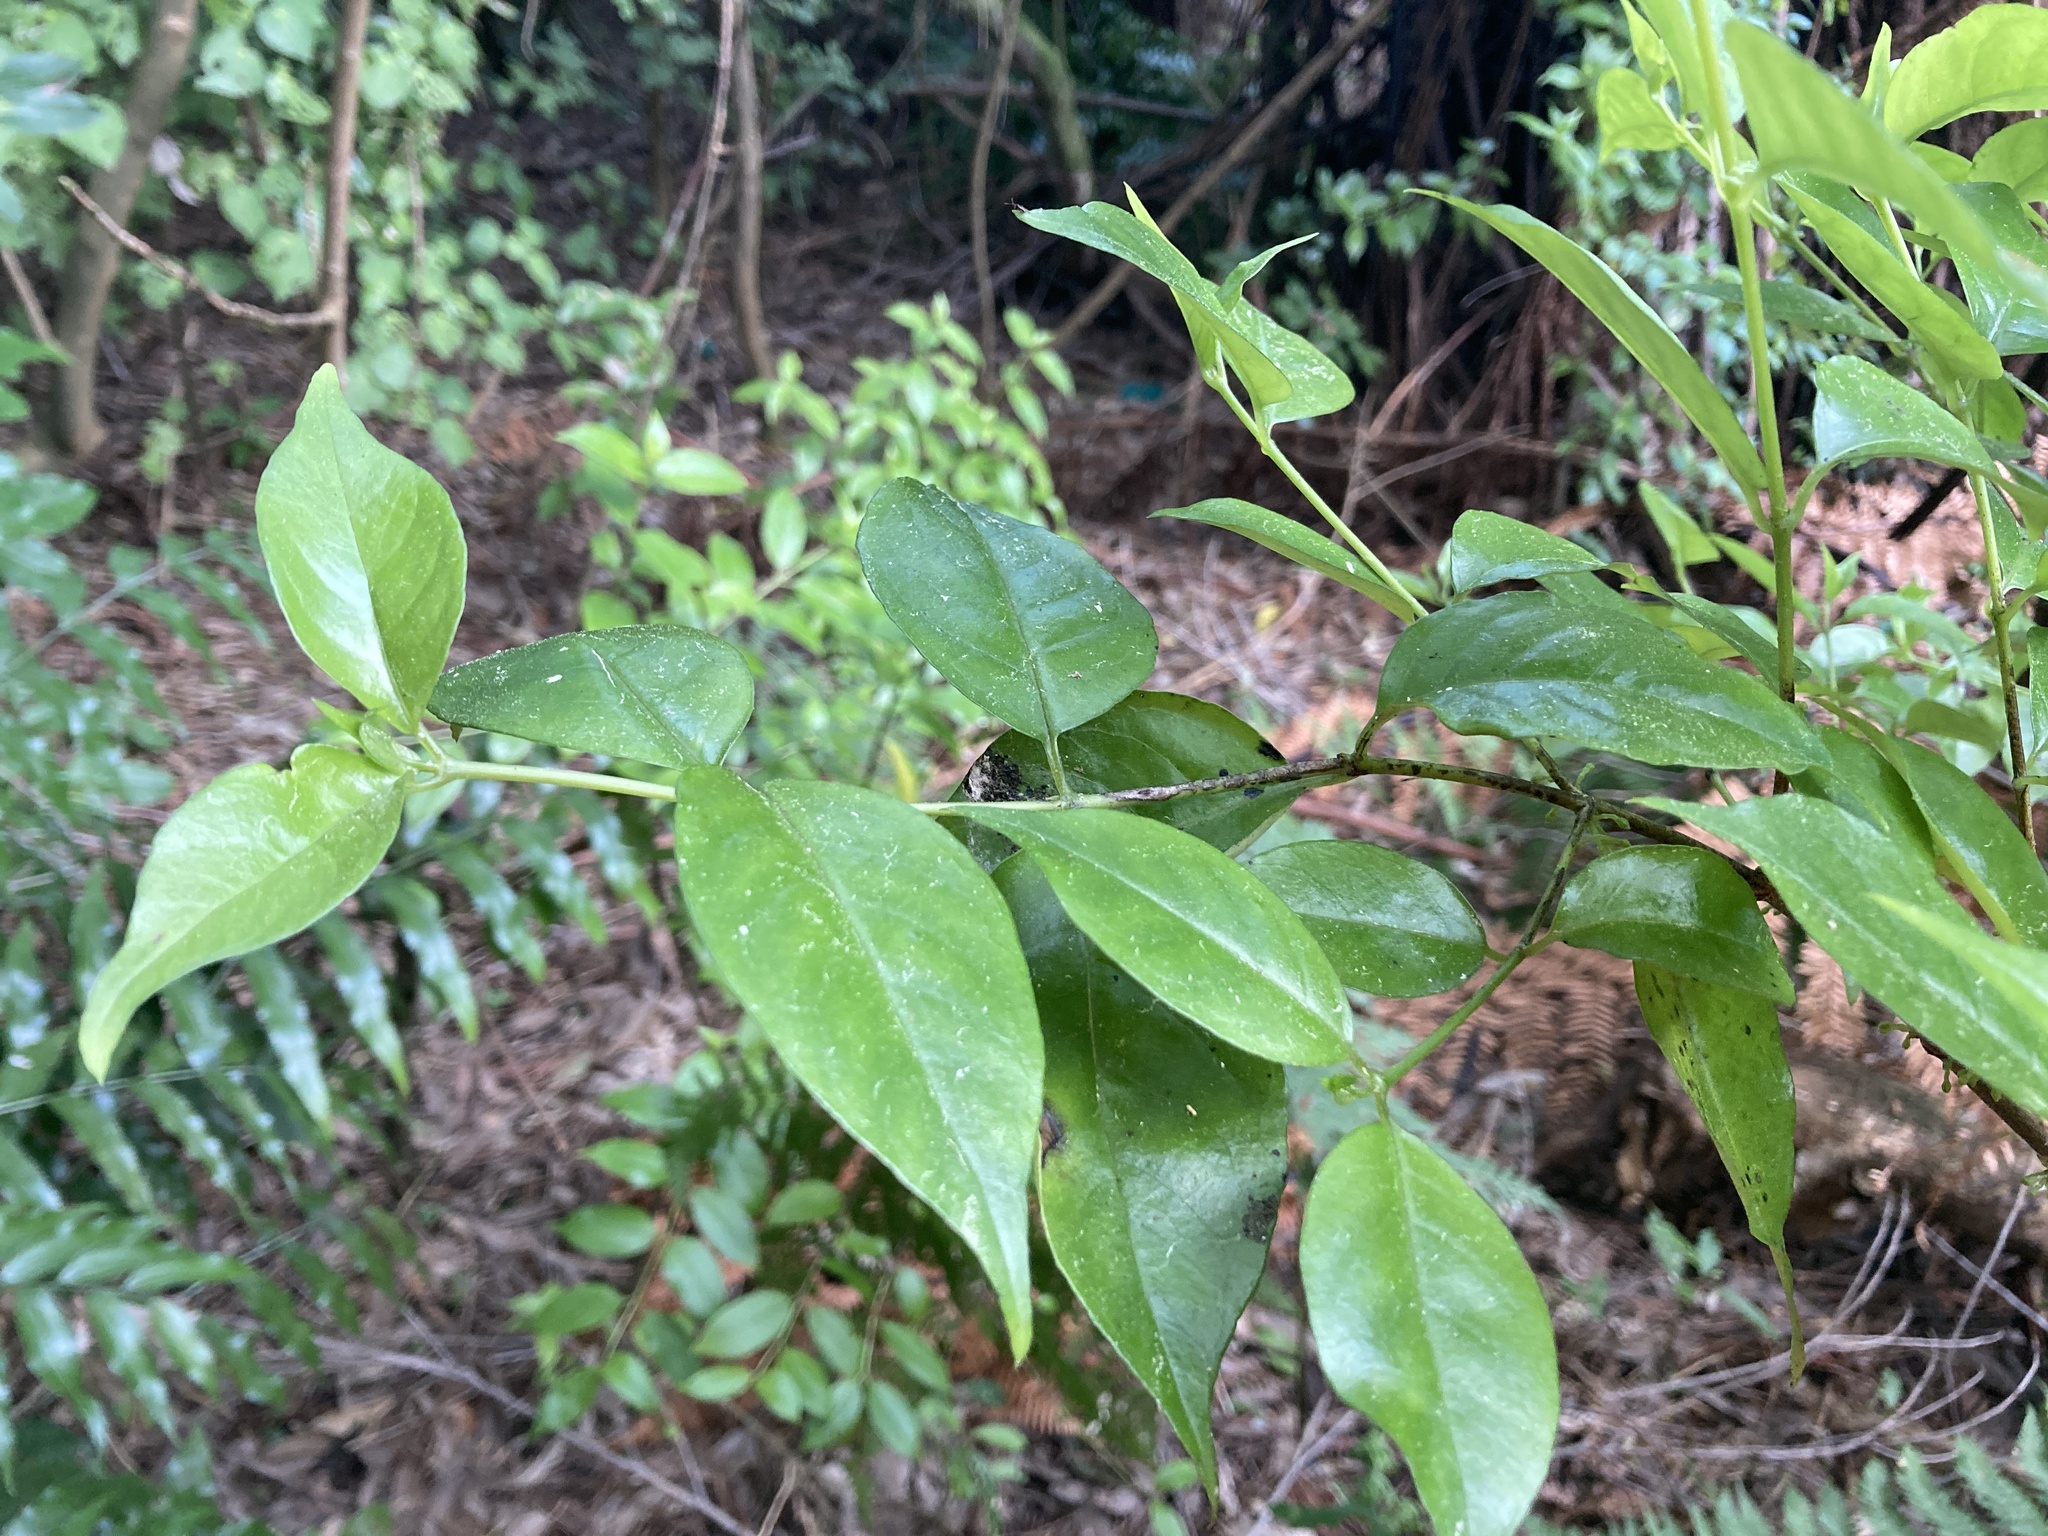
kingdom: Plantae
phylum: Tracheophyta
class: Magnoliopsida
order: Gentianales
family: Loganiaceae
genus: Geniostoma
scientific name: Geniostoma ligustrifolium
